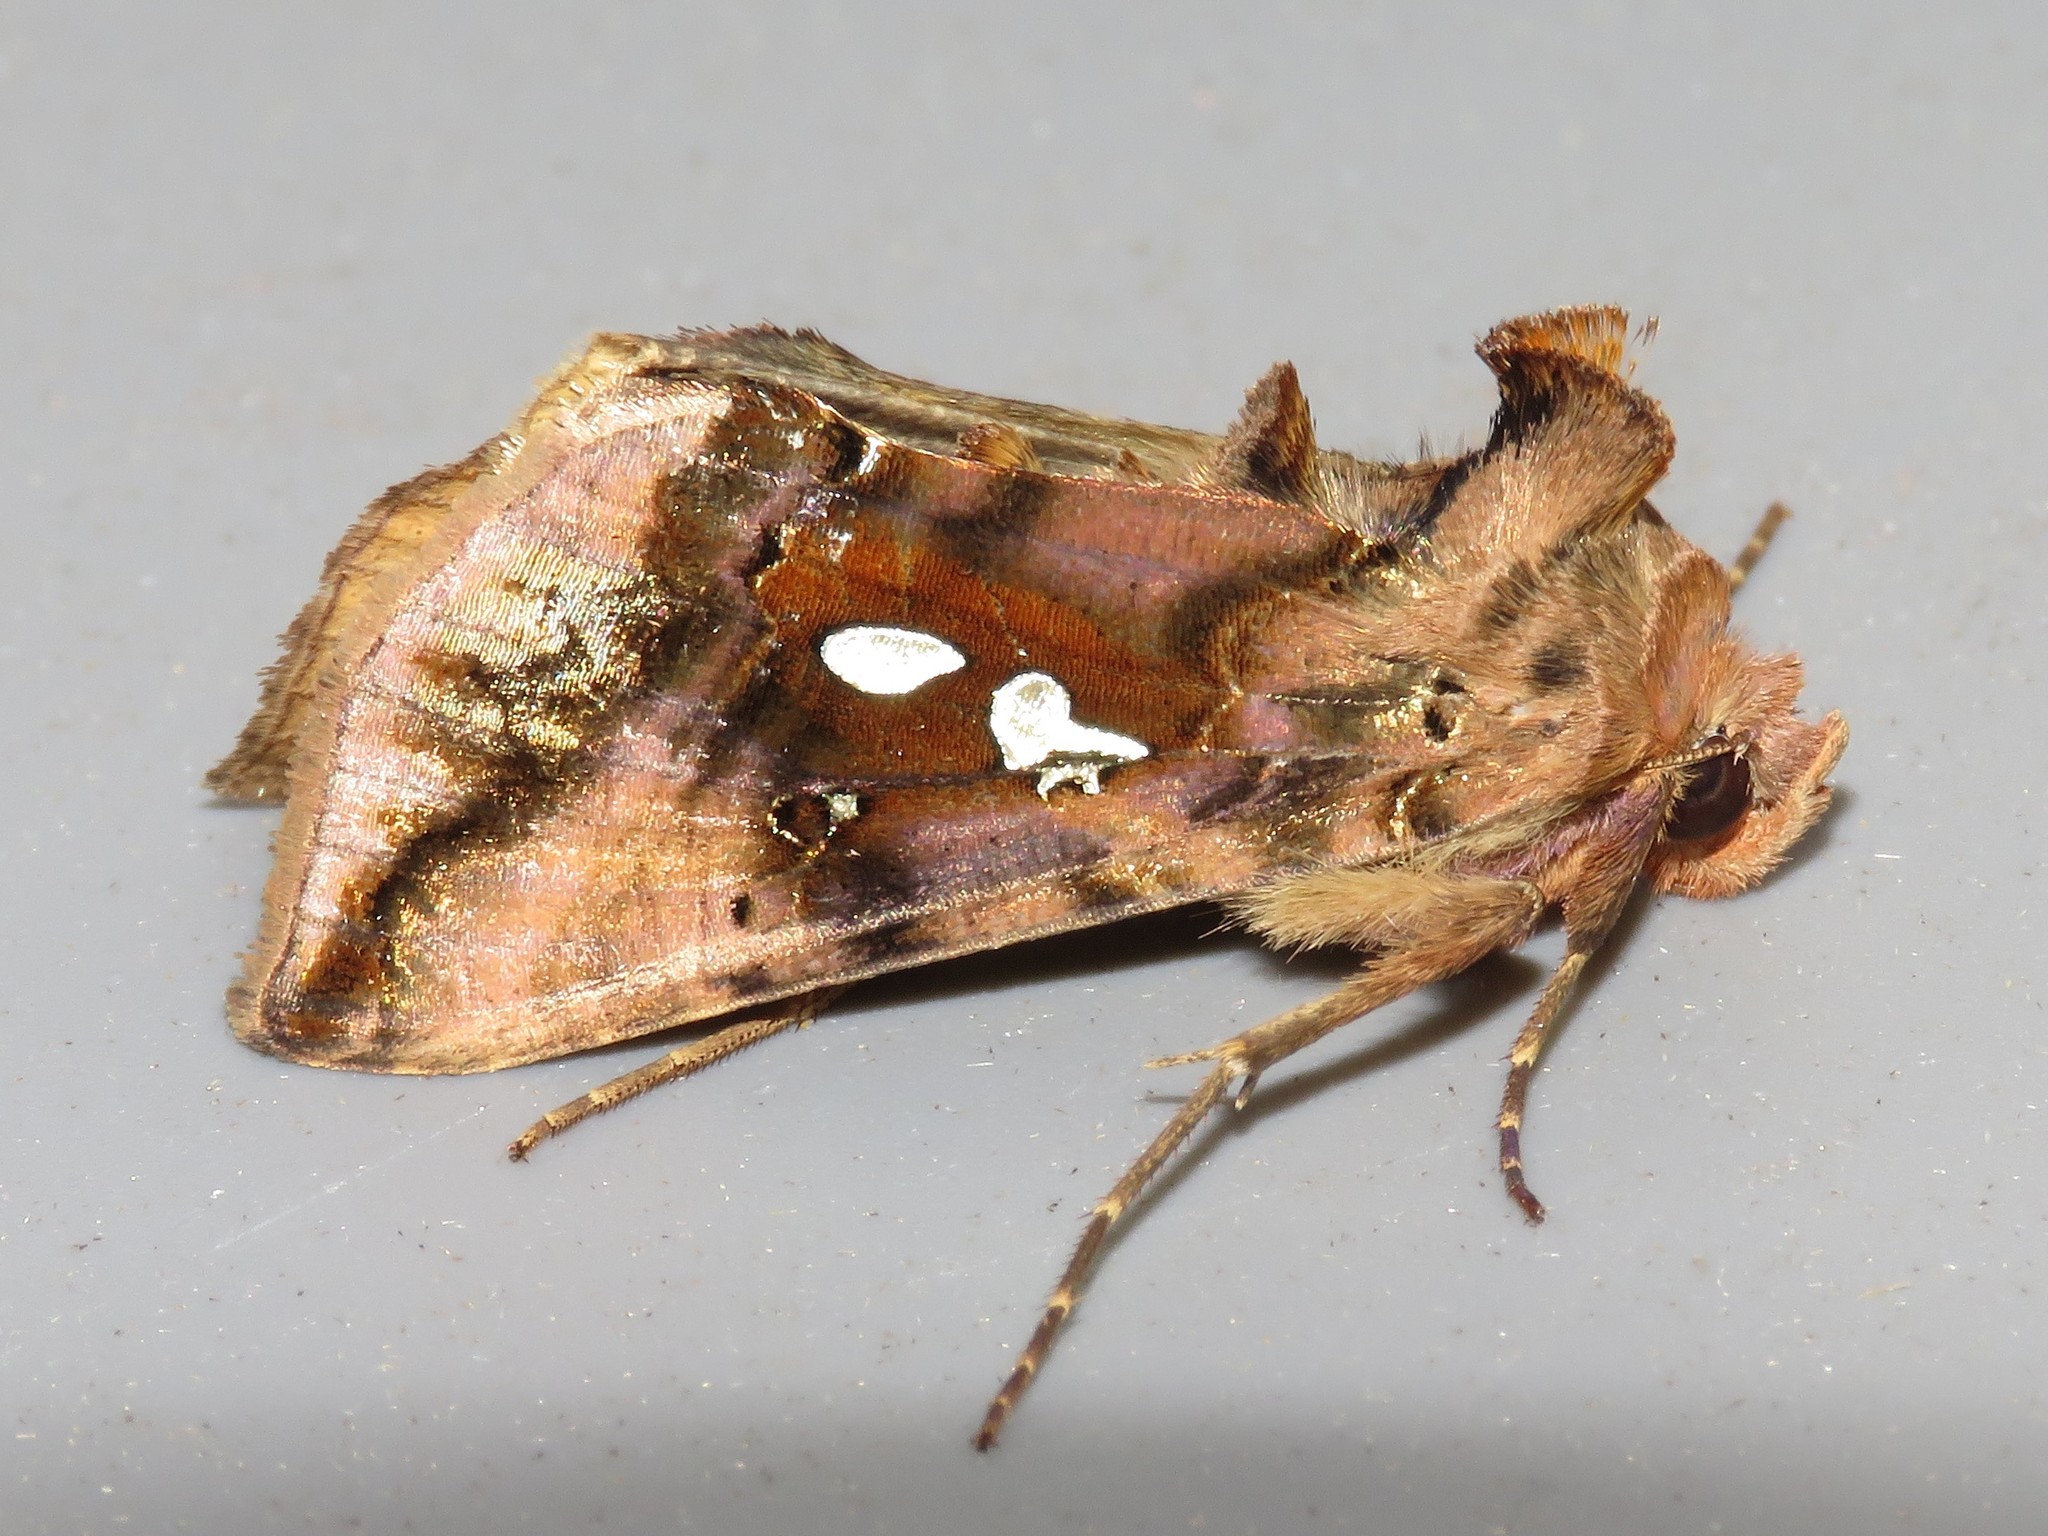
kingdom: Animalia
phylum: Arthropoda
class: Insecta
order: Lepidoptera
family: Noctuidae
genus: Autographa
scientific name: Autographa bimaculata
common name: Double-spotted spangle
